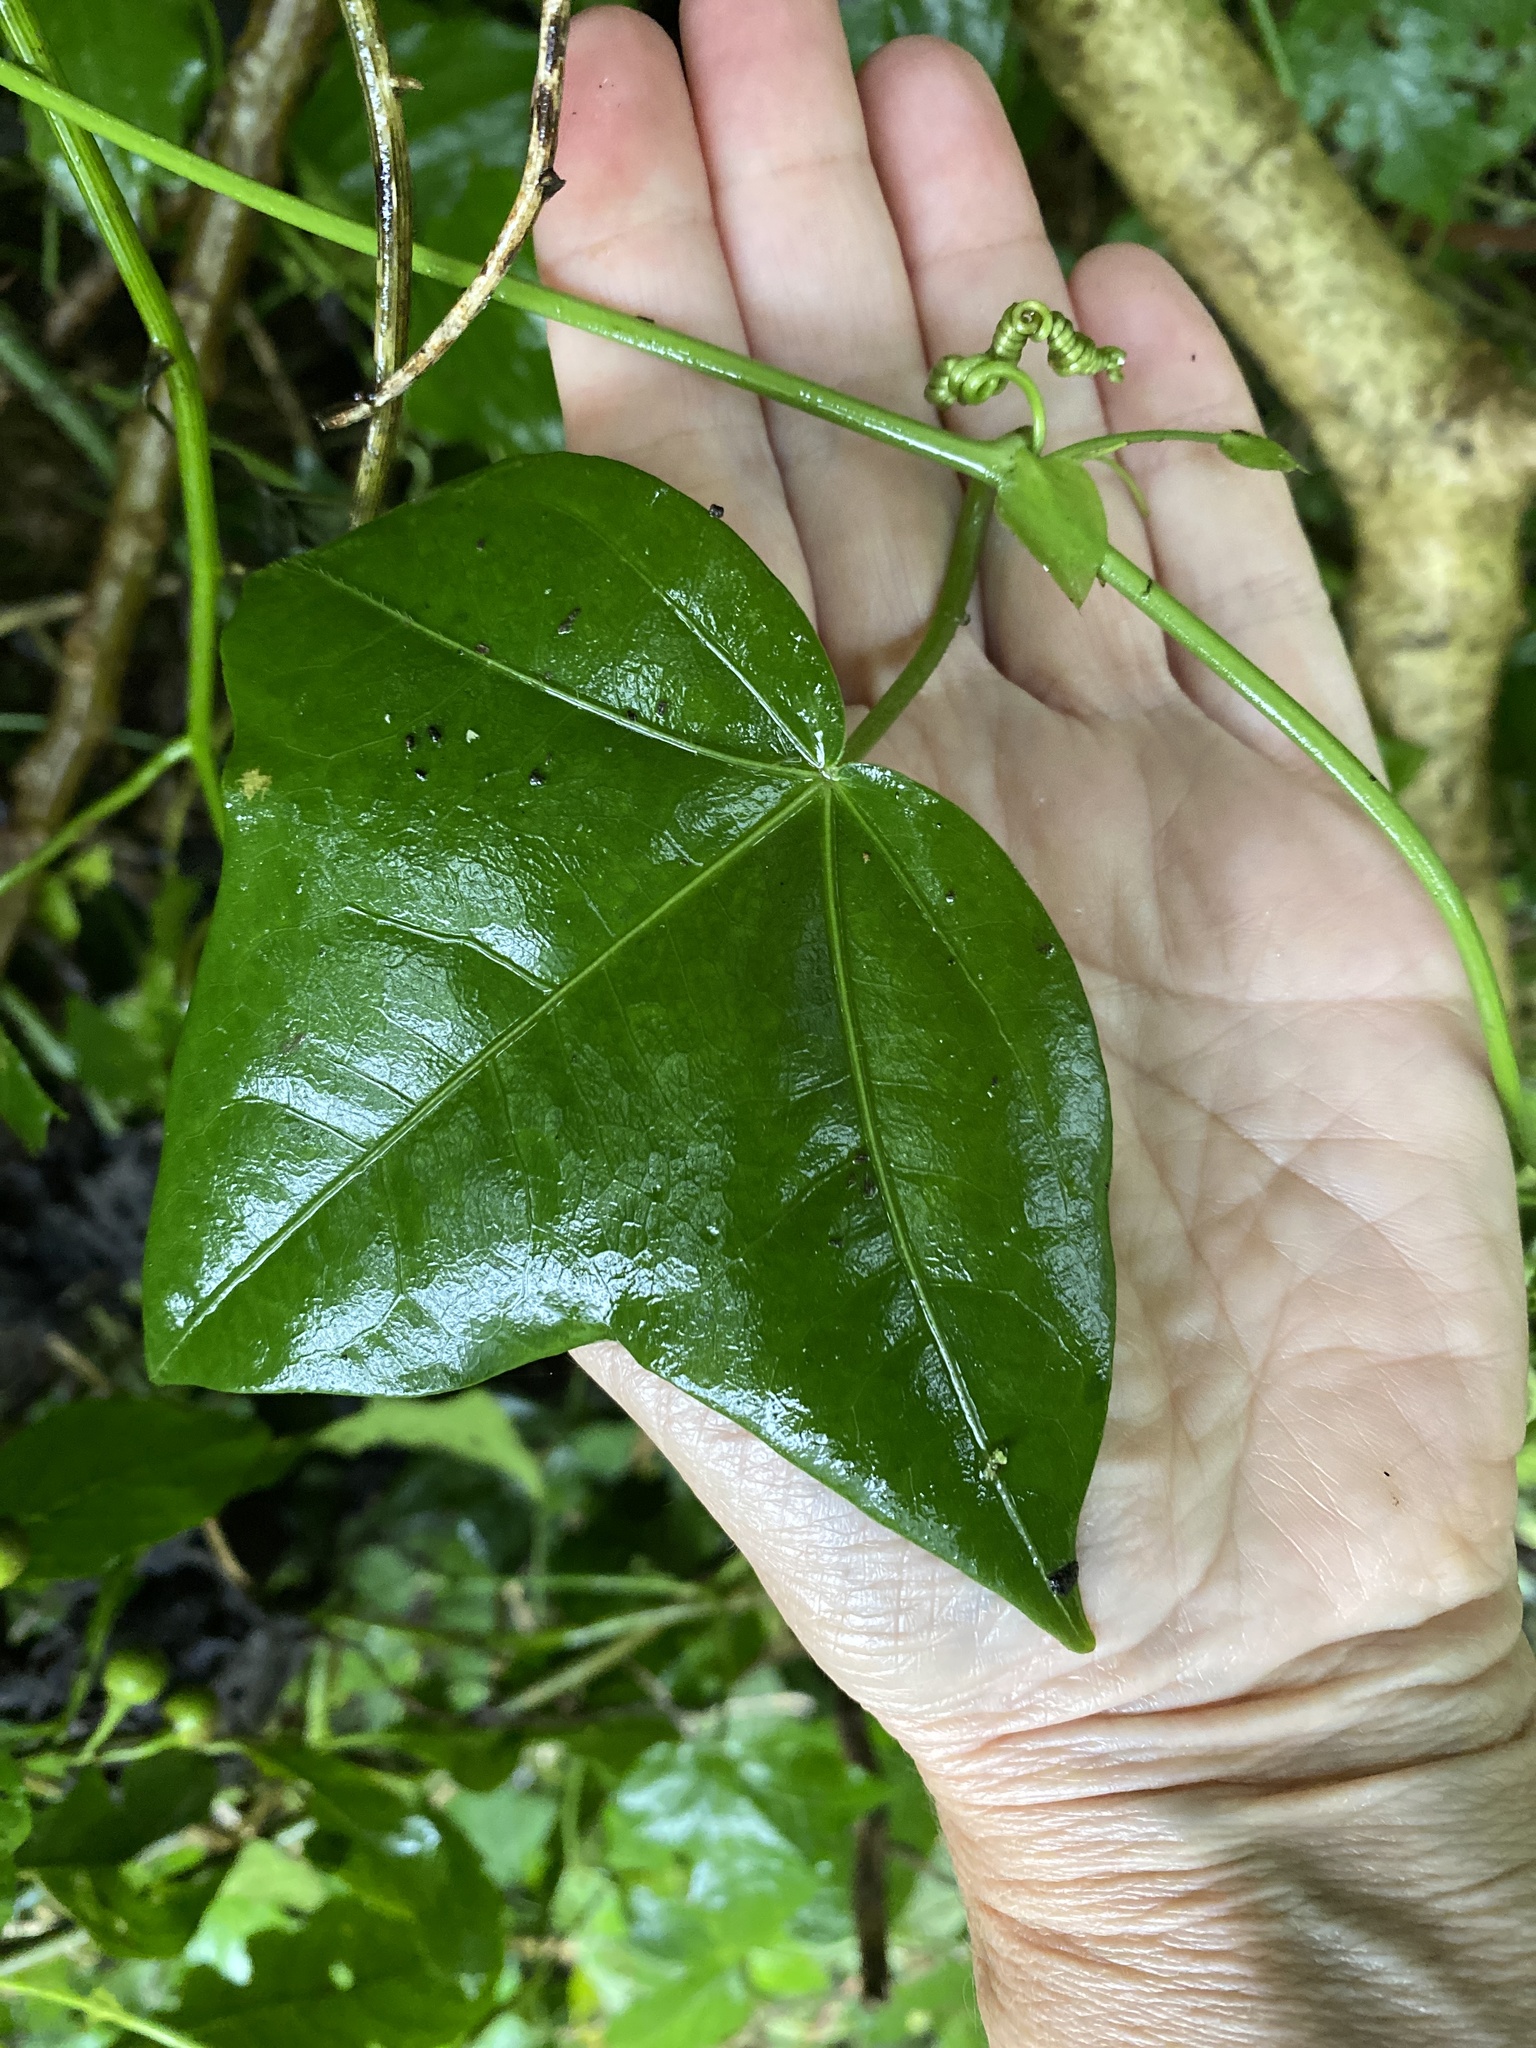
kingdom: Plantae
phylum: Tracheophyta
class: Magnoliopsida
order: Malpighiales
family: Passifloraceae
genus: Passiflora
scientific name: Passiflora eglandulosa
